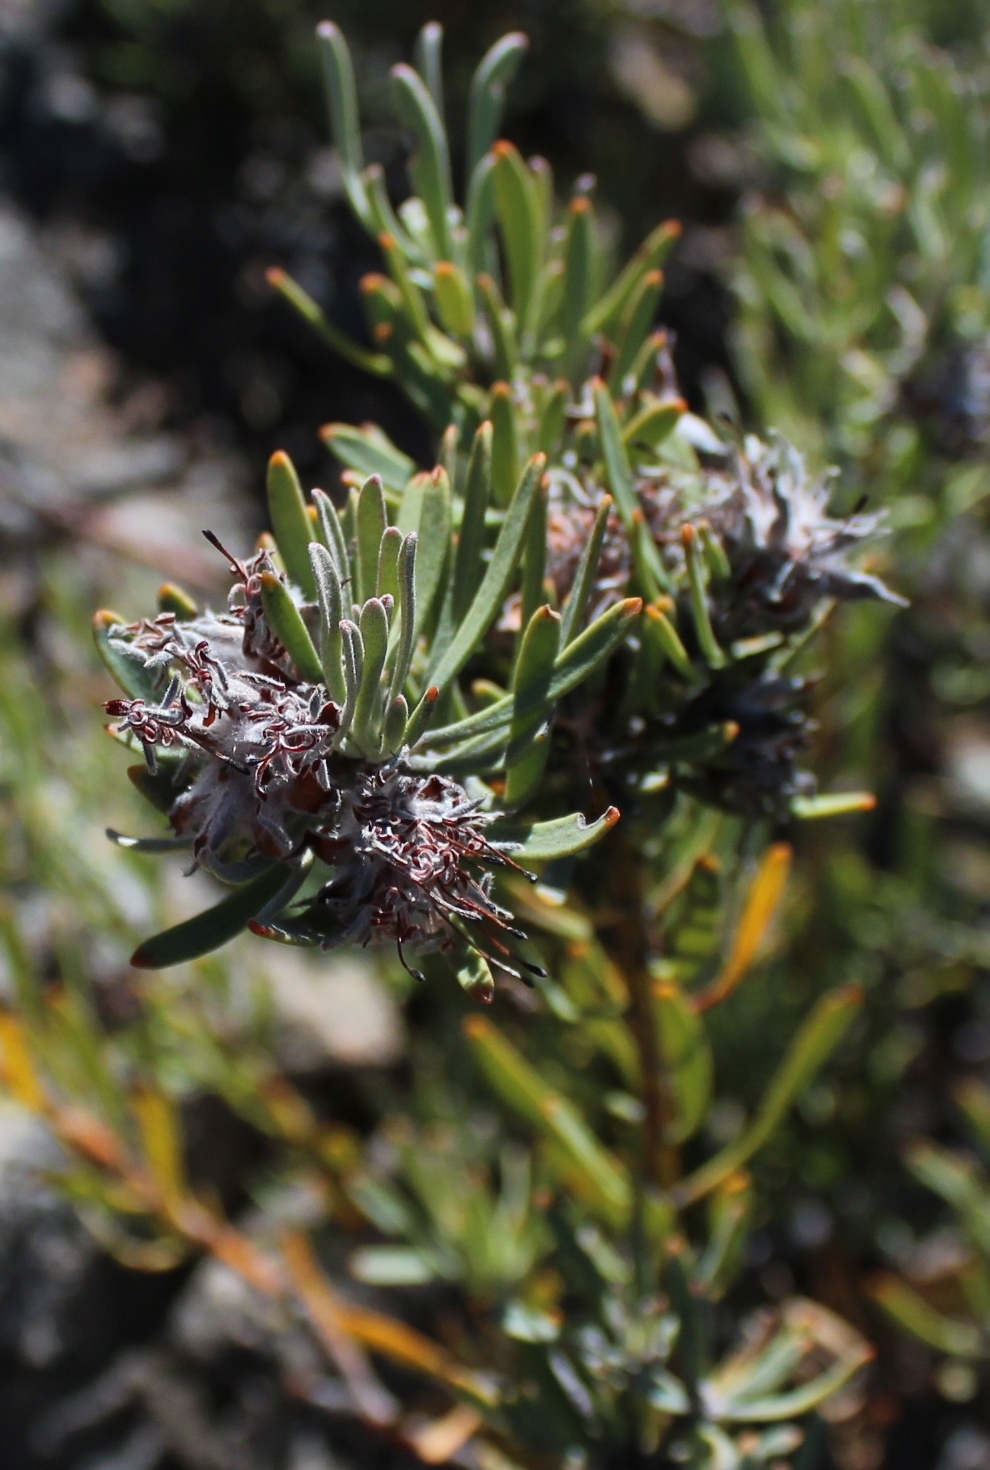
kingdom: Plantae
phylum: Tracheophyta
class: Magnoliopsida
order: Proteales
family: Proteaceae
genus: Vexatorella
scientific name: Vexatorella obtusata
